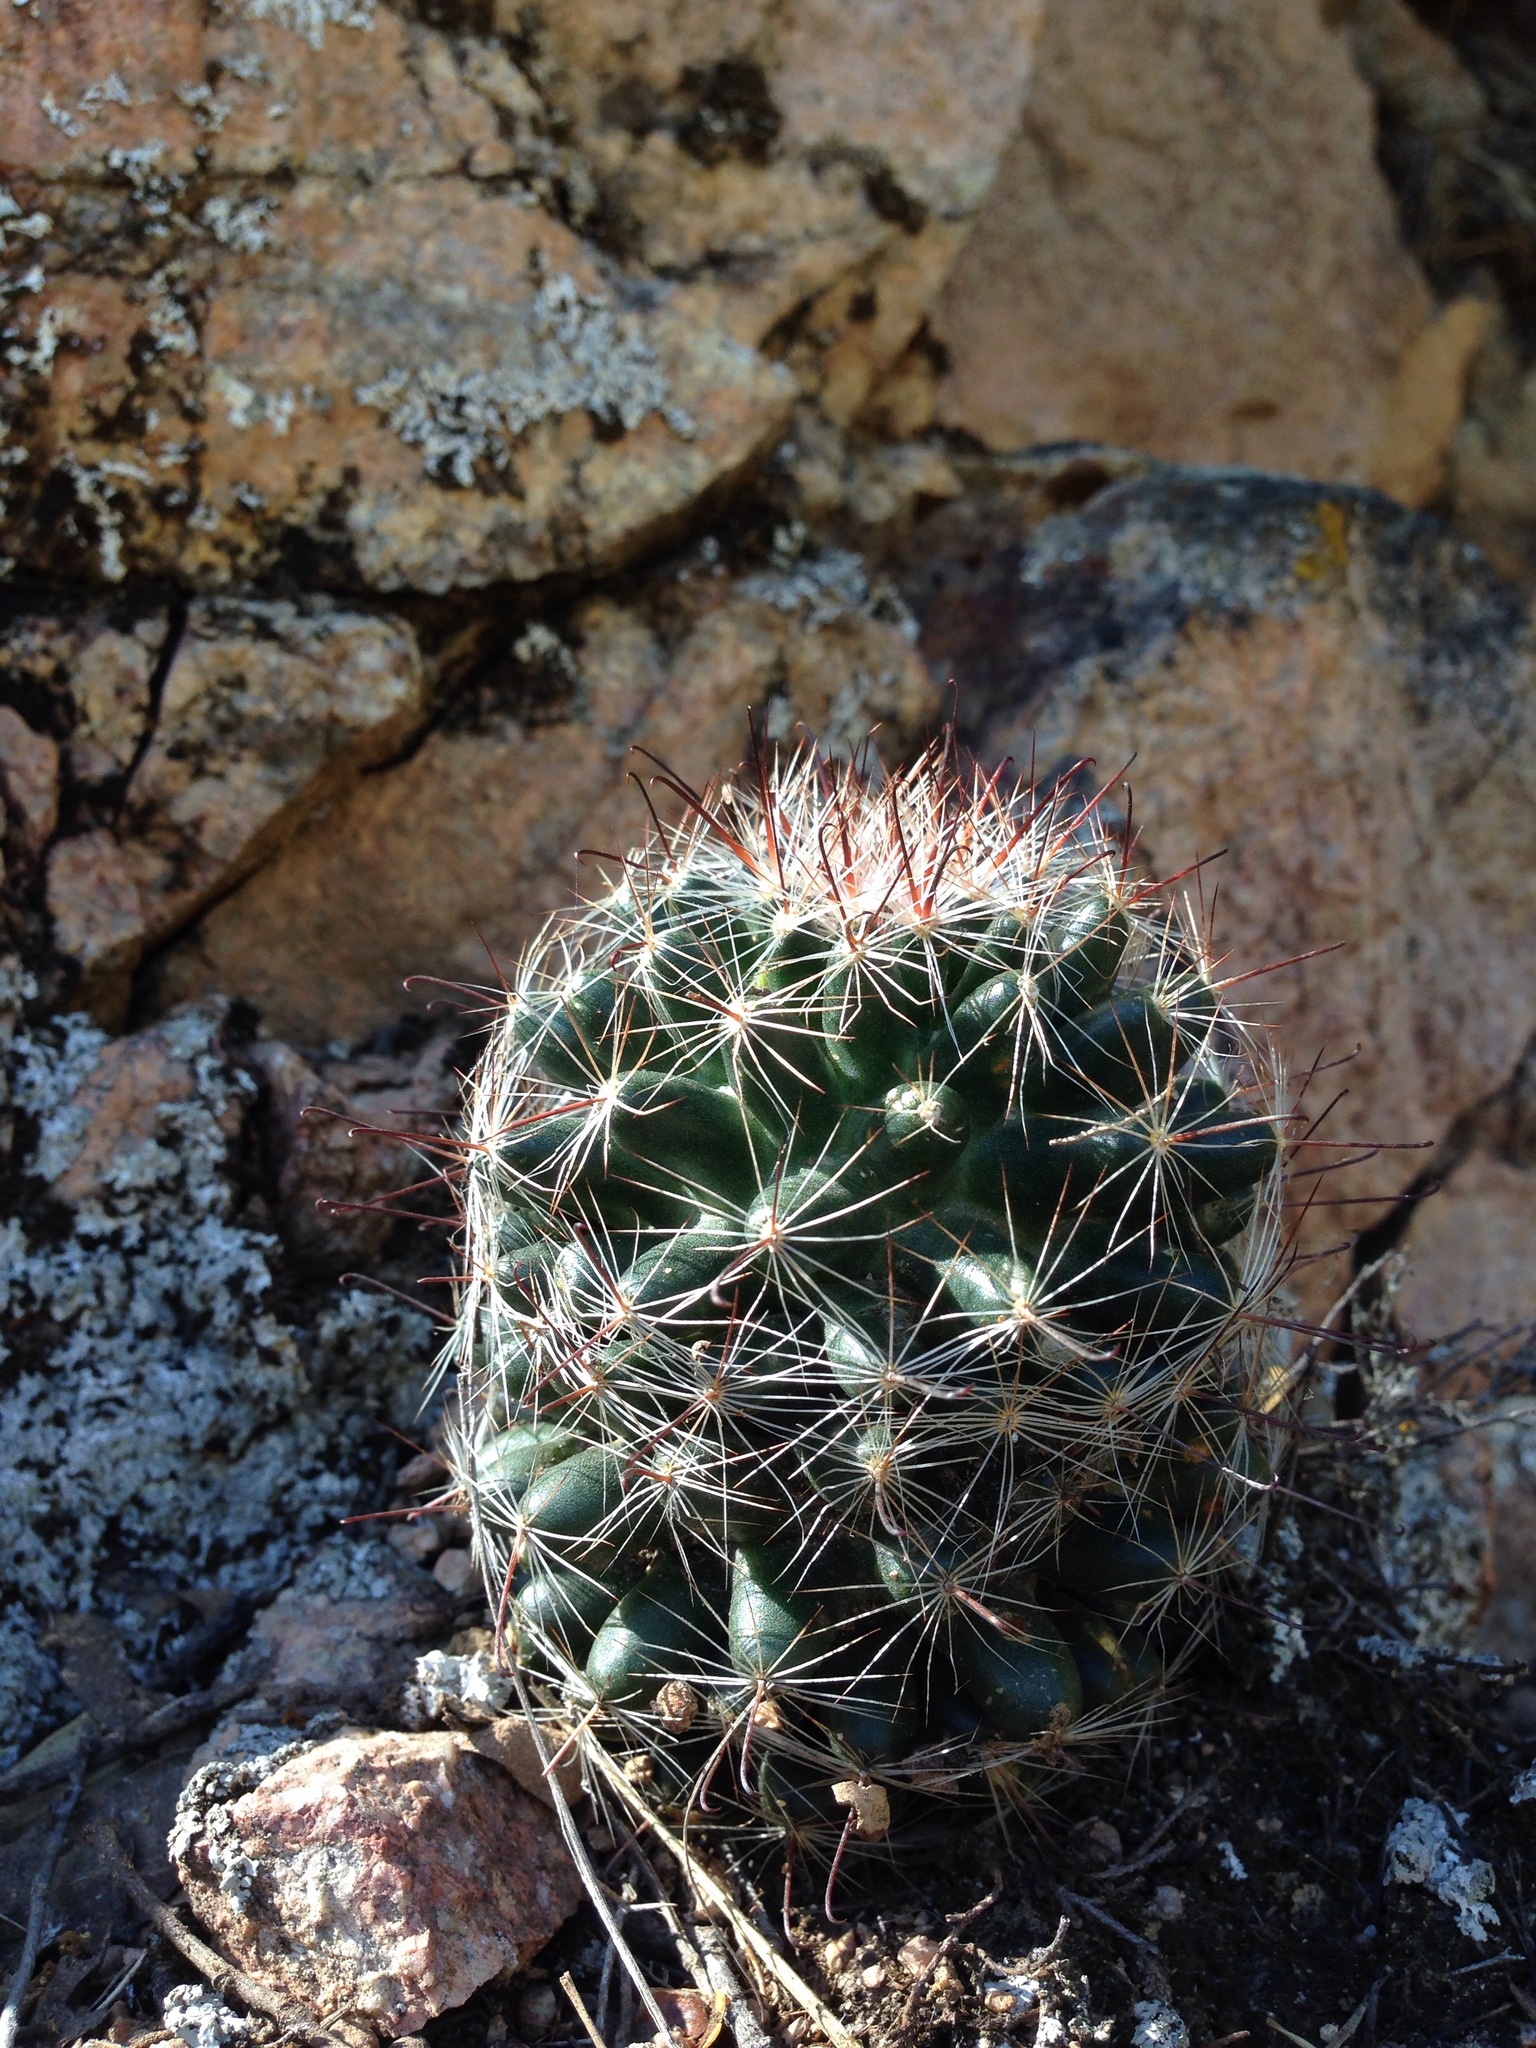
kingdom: Plantae
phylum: Tracheophyta
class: Magnoliopsida
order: Caryophyllales
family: Cactaceae
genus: Cochemiea
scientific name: Cochemiea wrightii
